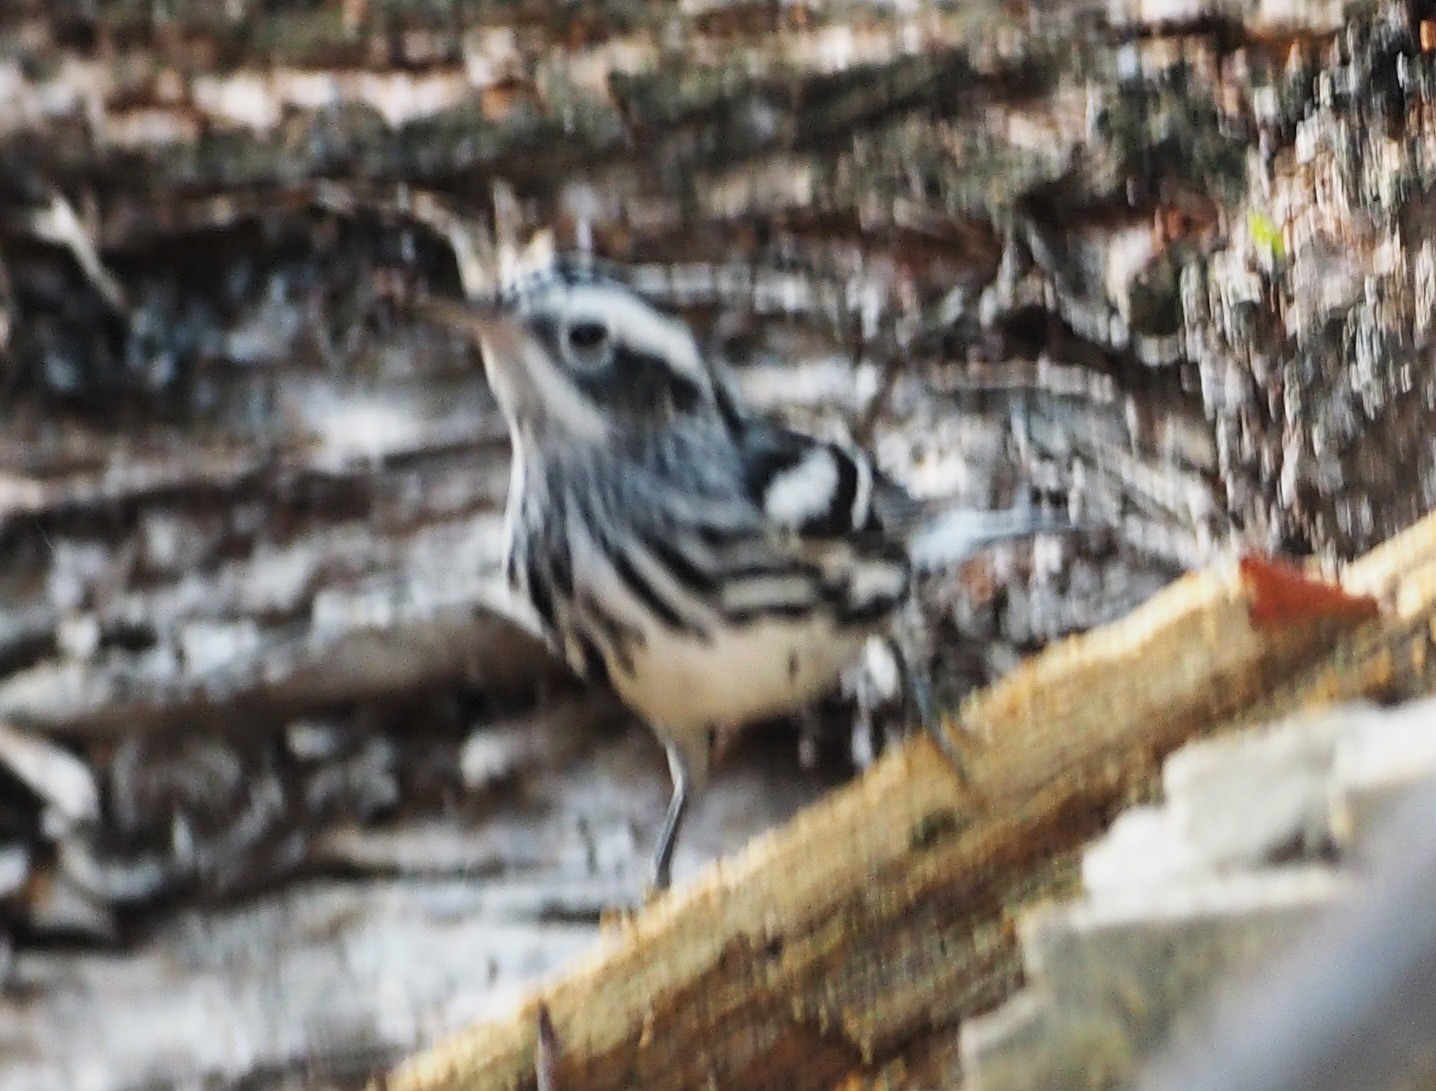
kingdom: Animalia
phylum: Chordata
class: Aves
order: Passeriformes
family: Parulidae
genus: Mniotilta
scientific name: Mniotilta varia
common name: Black-and-white warbler
